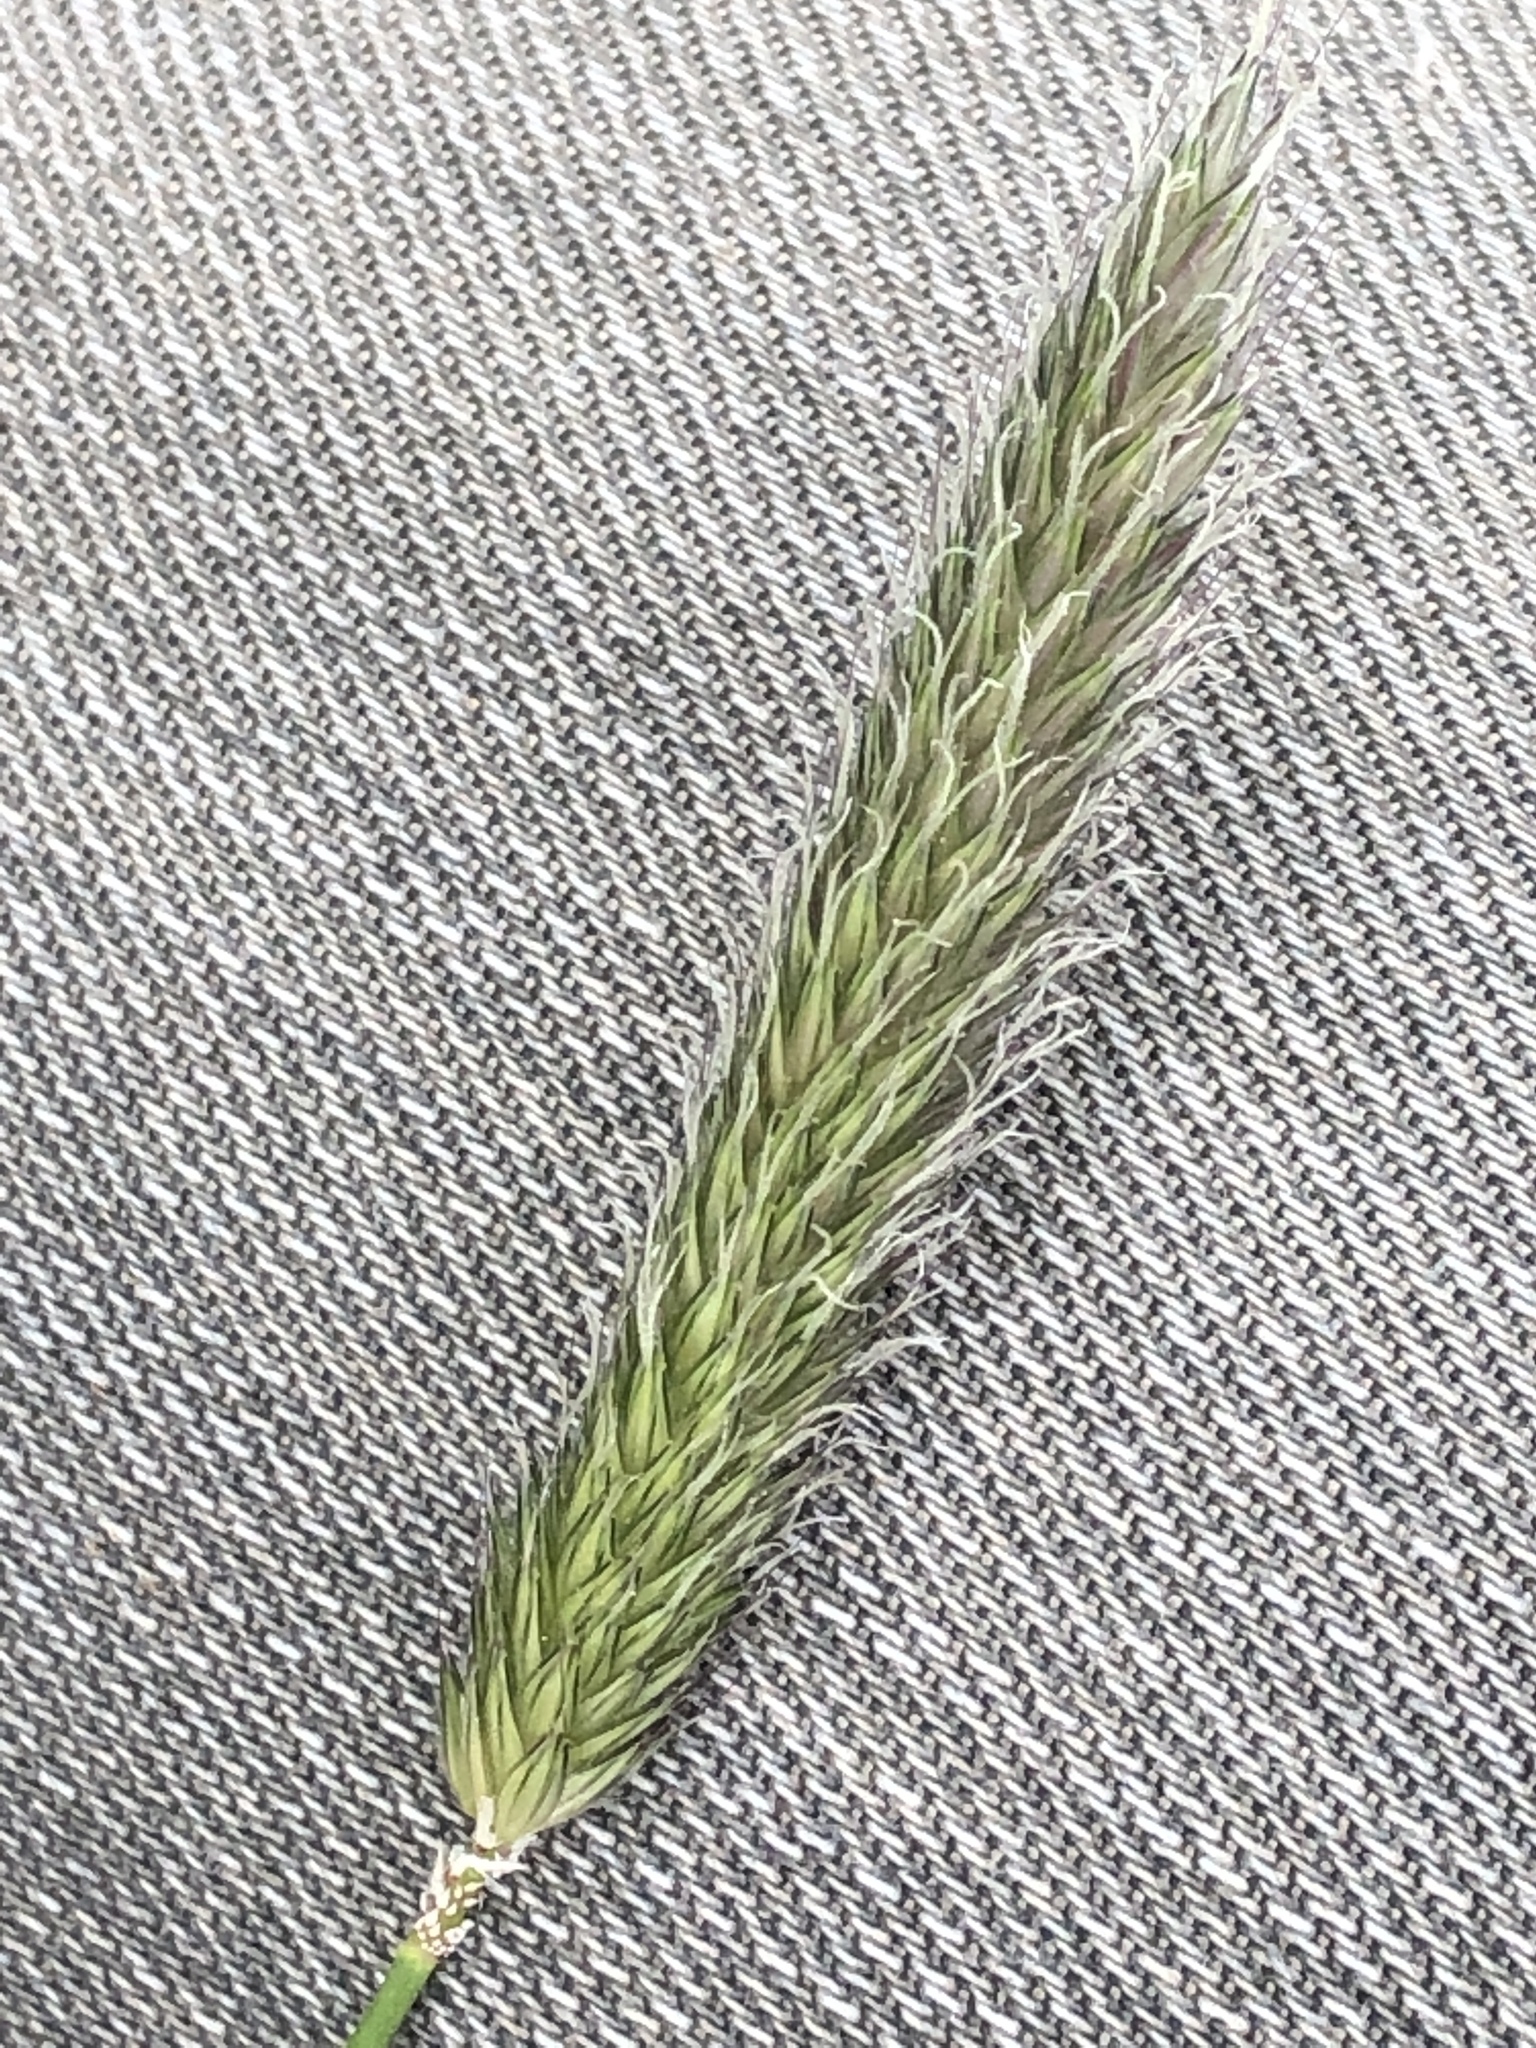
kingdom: Plantae
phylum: Tracheophyta
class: Liliopsida
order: Poales
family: Poaceae
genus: Alopecurus
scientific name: Alopecurus pratensis
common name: Meadow foxtail
